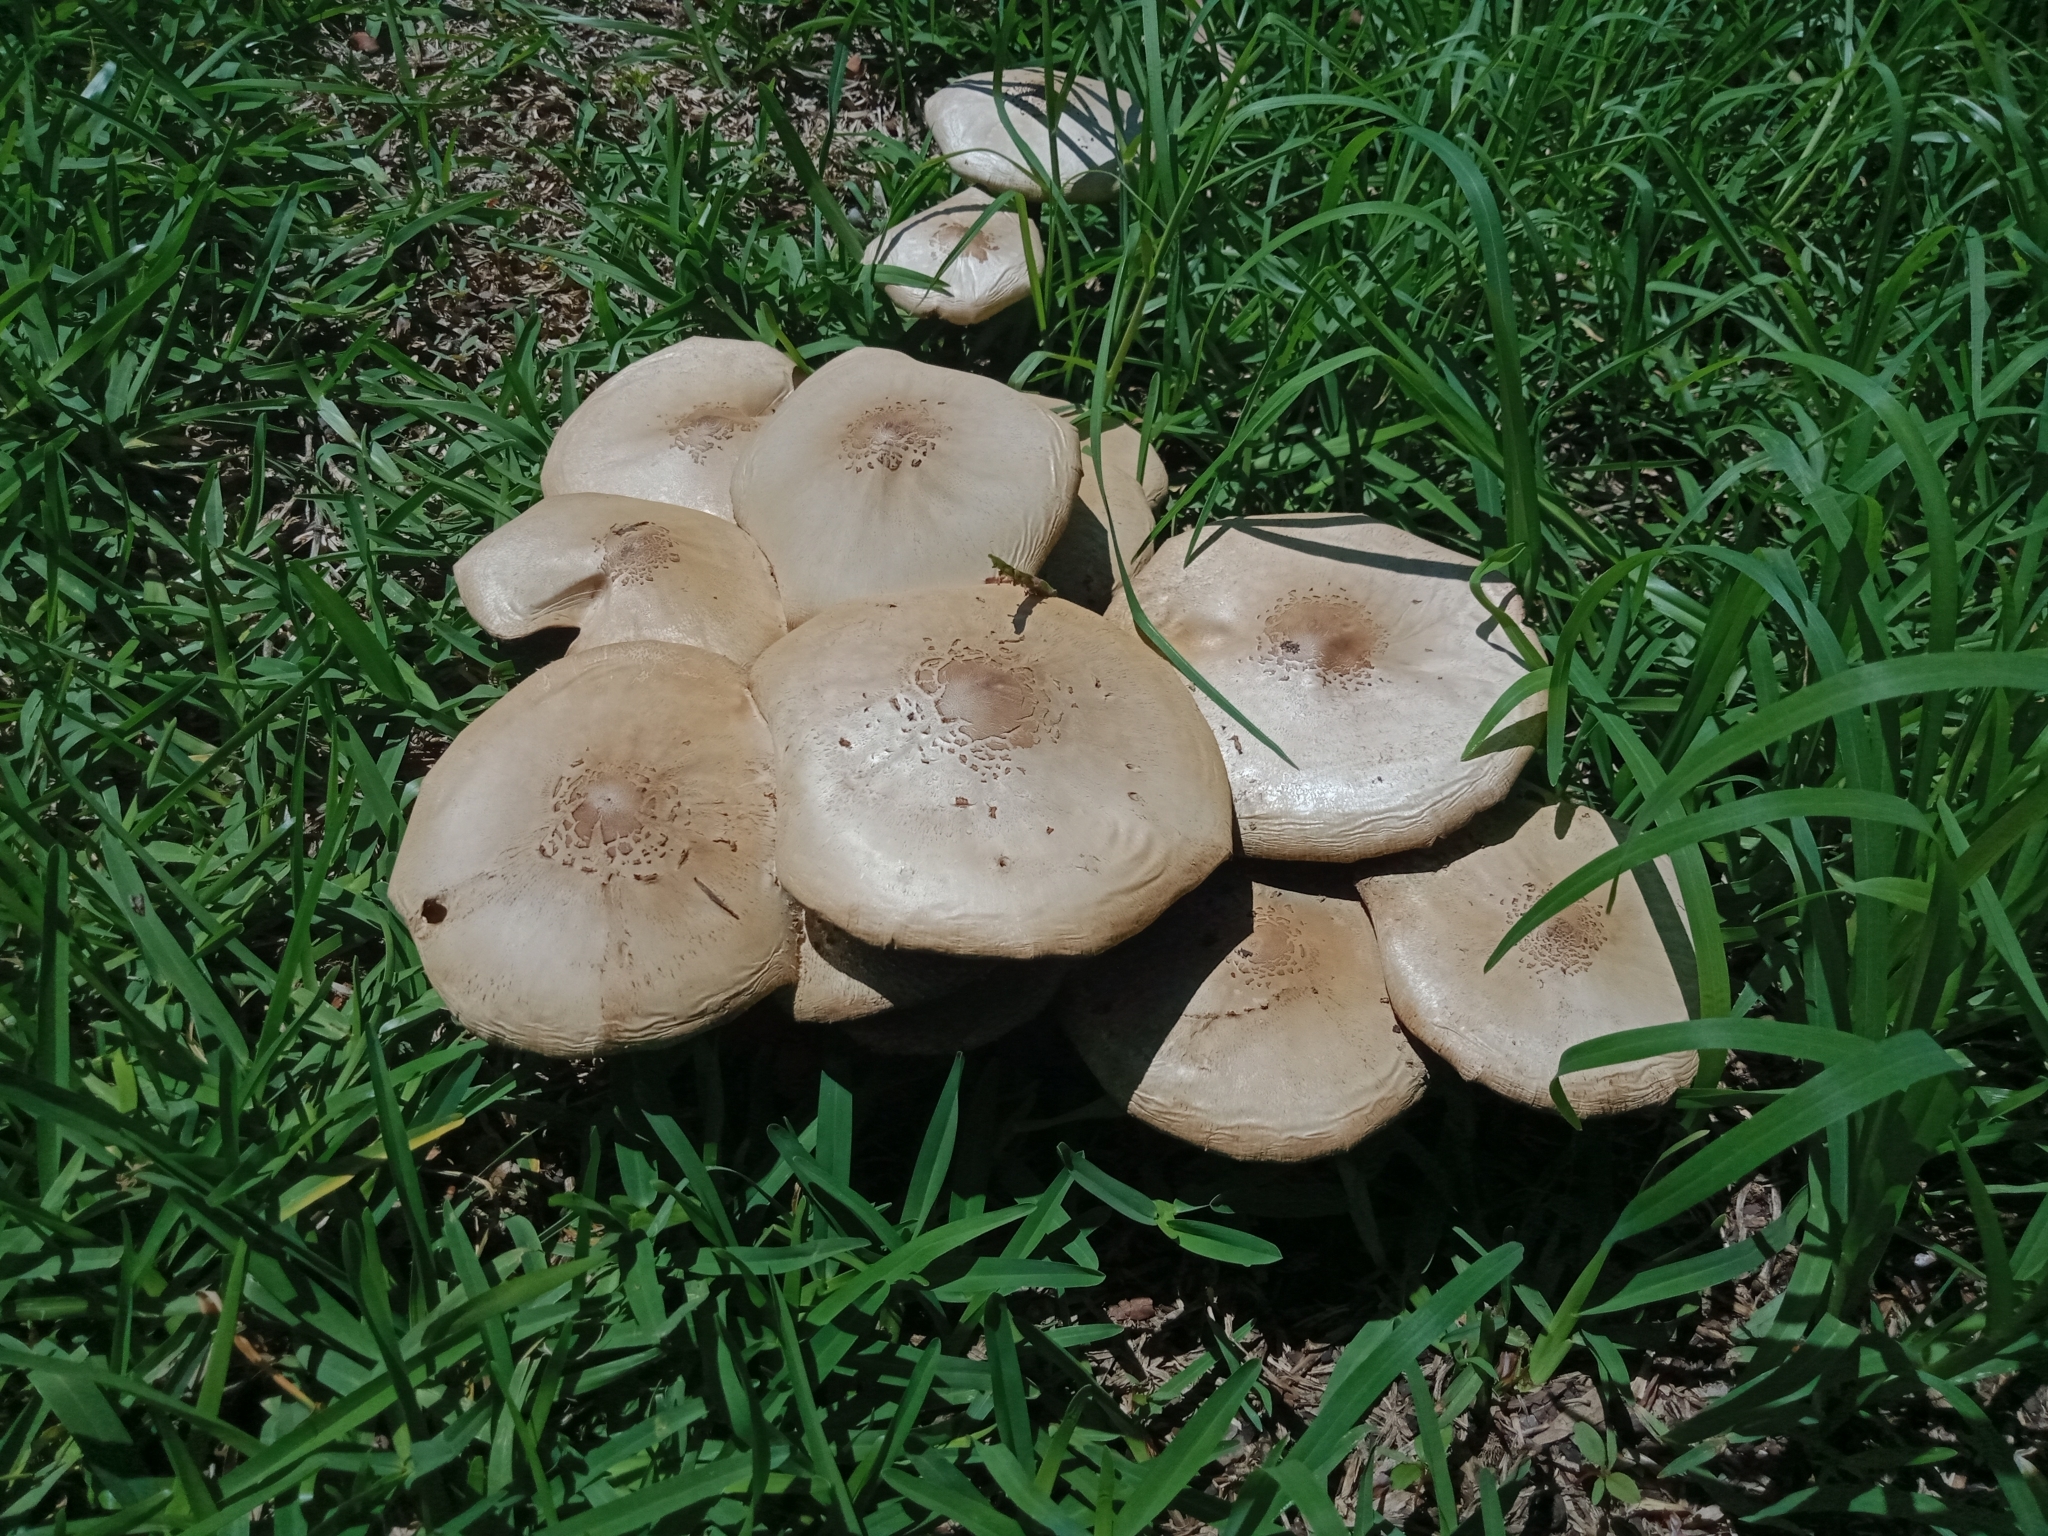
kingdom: Fungi
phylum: Basidiomycota
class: Agaricomycetes
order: Agaricales
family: Agaricaceae
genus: Chlorophyllum
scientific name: Chlorophyllum molybdites
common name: False parasol
